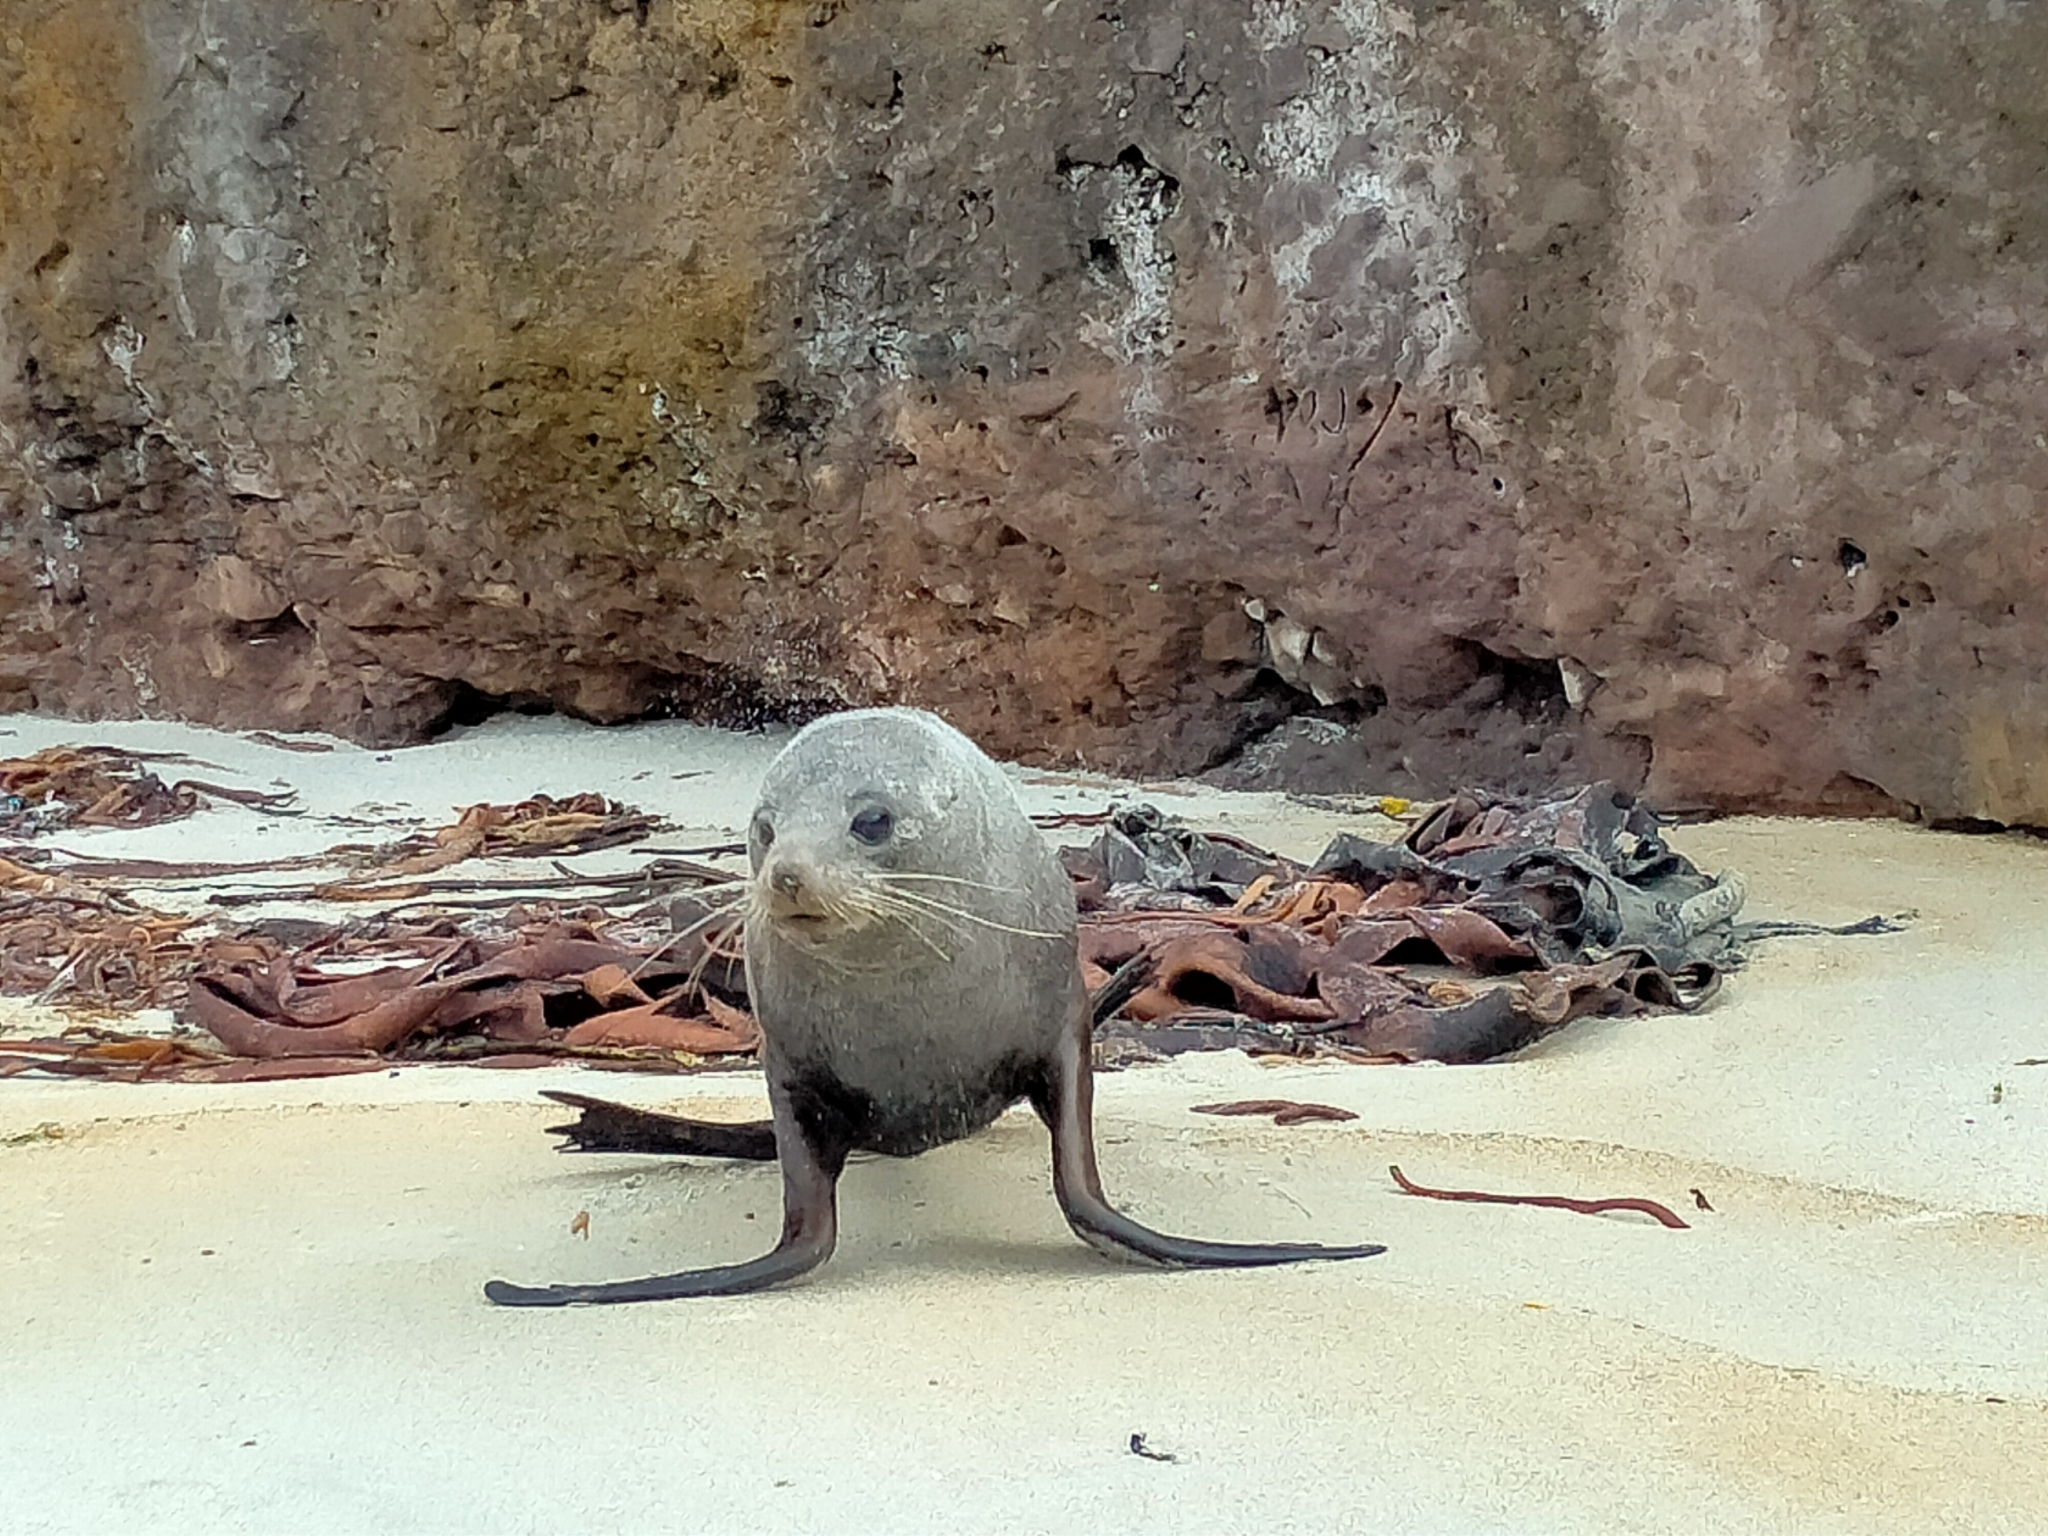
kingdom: Animalia
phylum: Chordata
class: Mammalia
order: Carnivora
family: Otariidae
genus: Arctocephalus
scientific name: Arctocephalus forsteri
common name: New zealand fur seal
